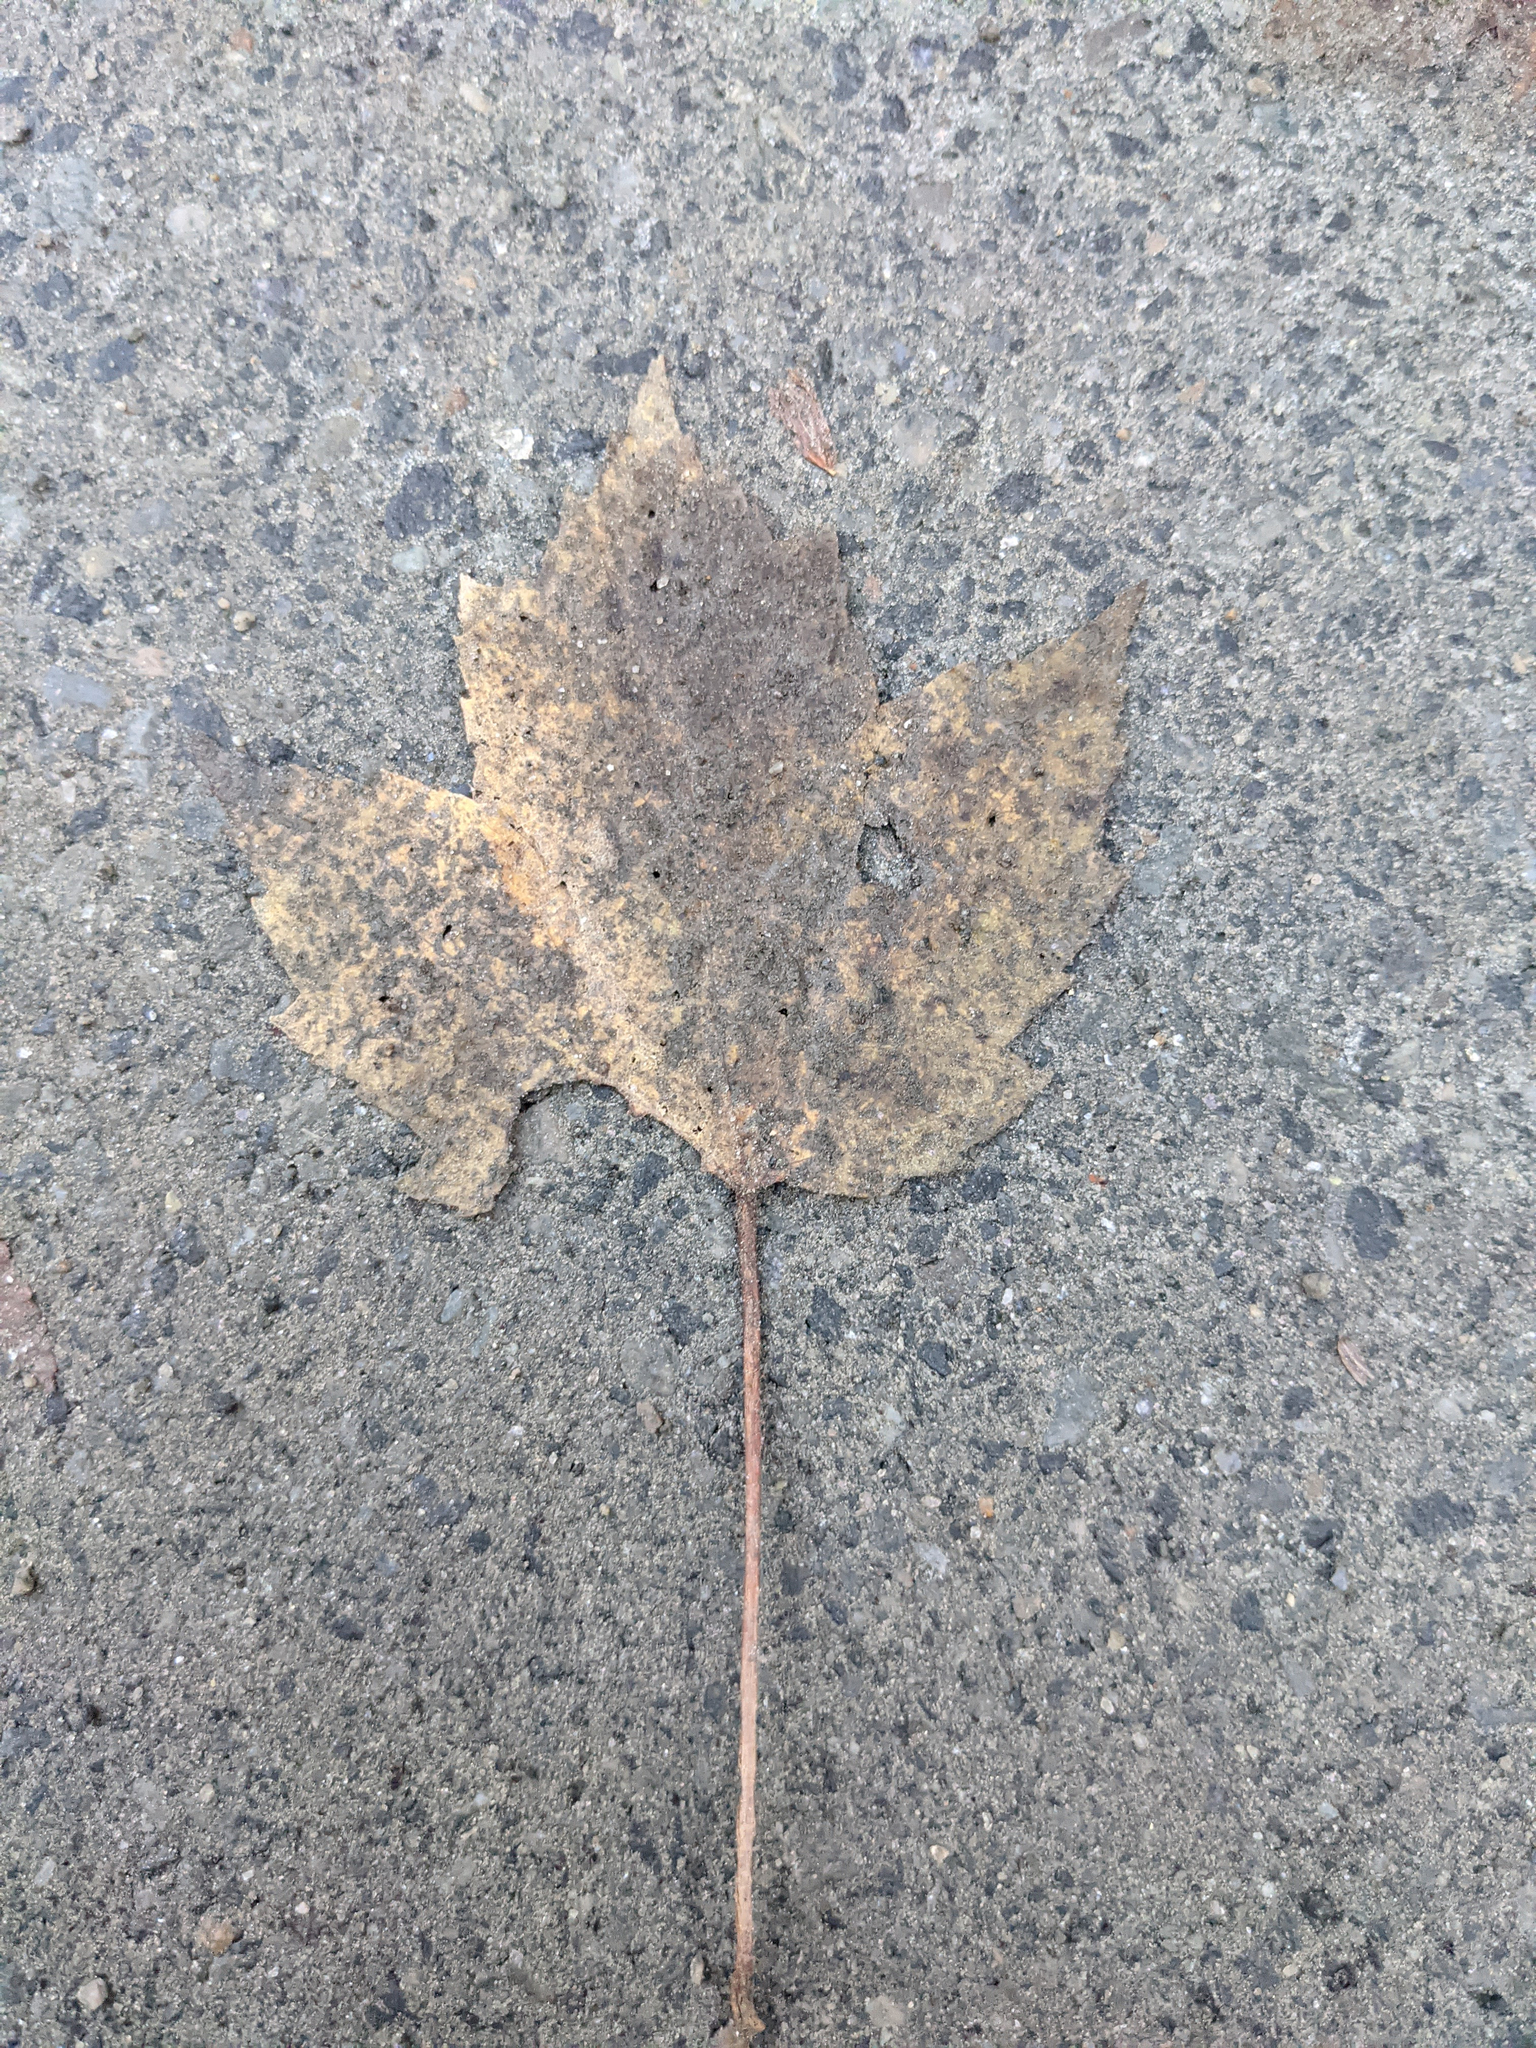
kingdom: Plantae
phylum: Tracheophyta
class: Magnoliopsida
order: Sapindales
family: Sapindaceae
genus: Acer
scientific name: Acer rubrum
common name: Red maple
